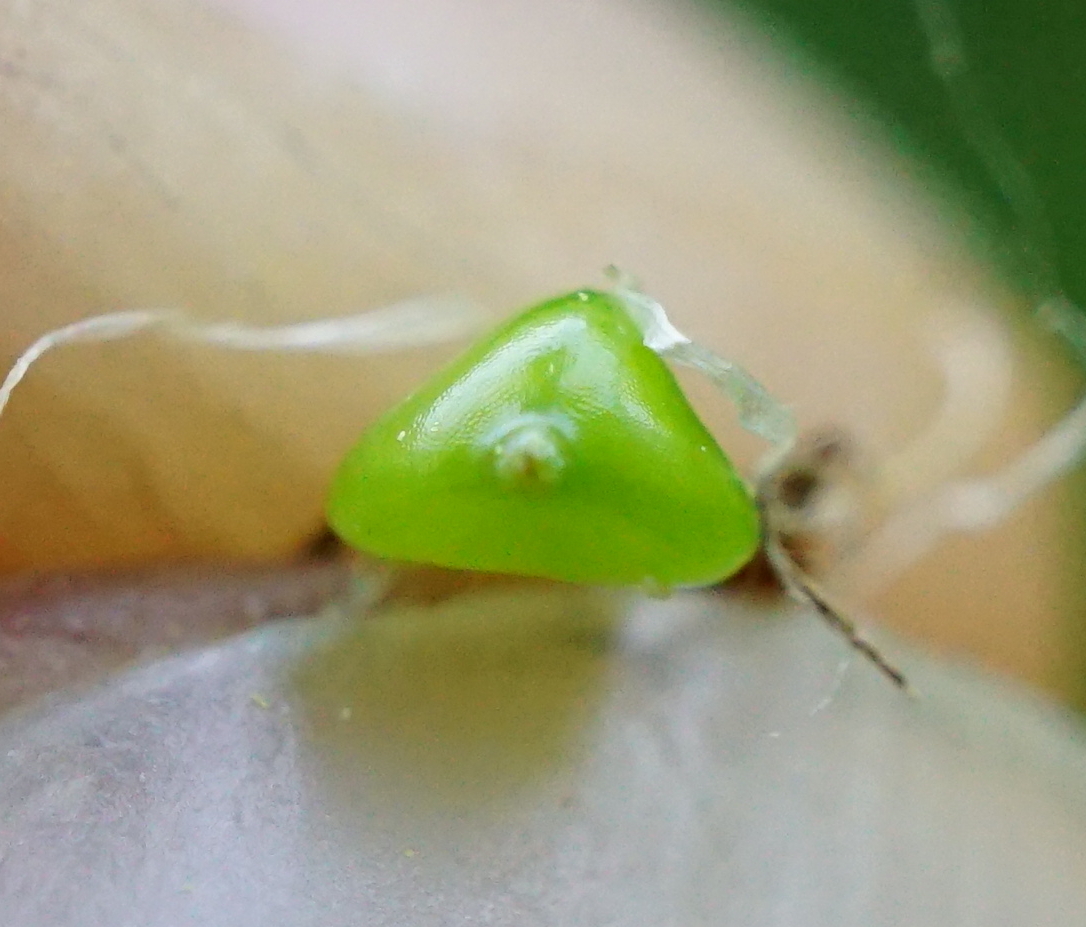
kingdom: Plantae
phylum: Tracheophyta
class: Liliopsida
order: Poales
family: Cyperaceae
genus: Bolboschoenus
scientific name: Bolboschoenus laticarpus
